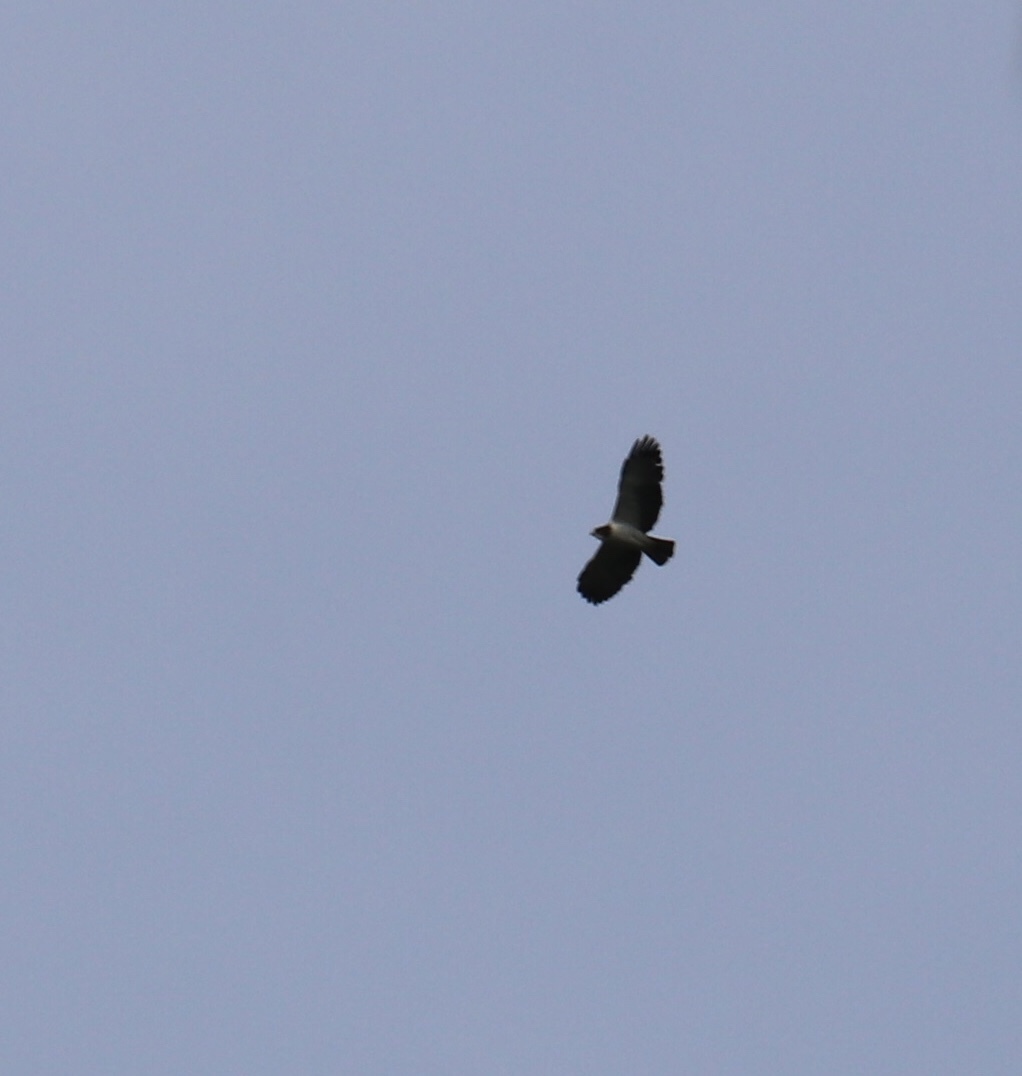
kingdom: Animalia
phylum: Chordata
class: Aves
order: Accipitriformes
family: Accipitridae
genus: Buteo
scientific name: Buteo brachyurus
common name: Short-tailed hawk
